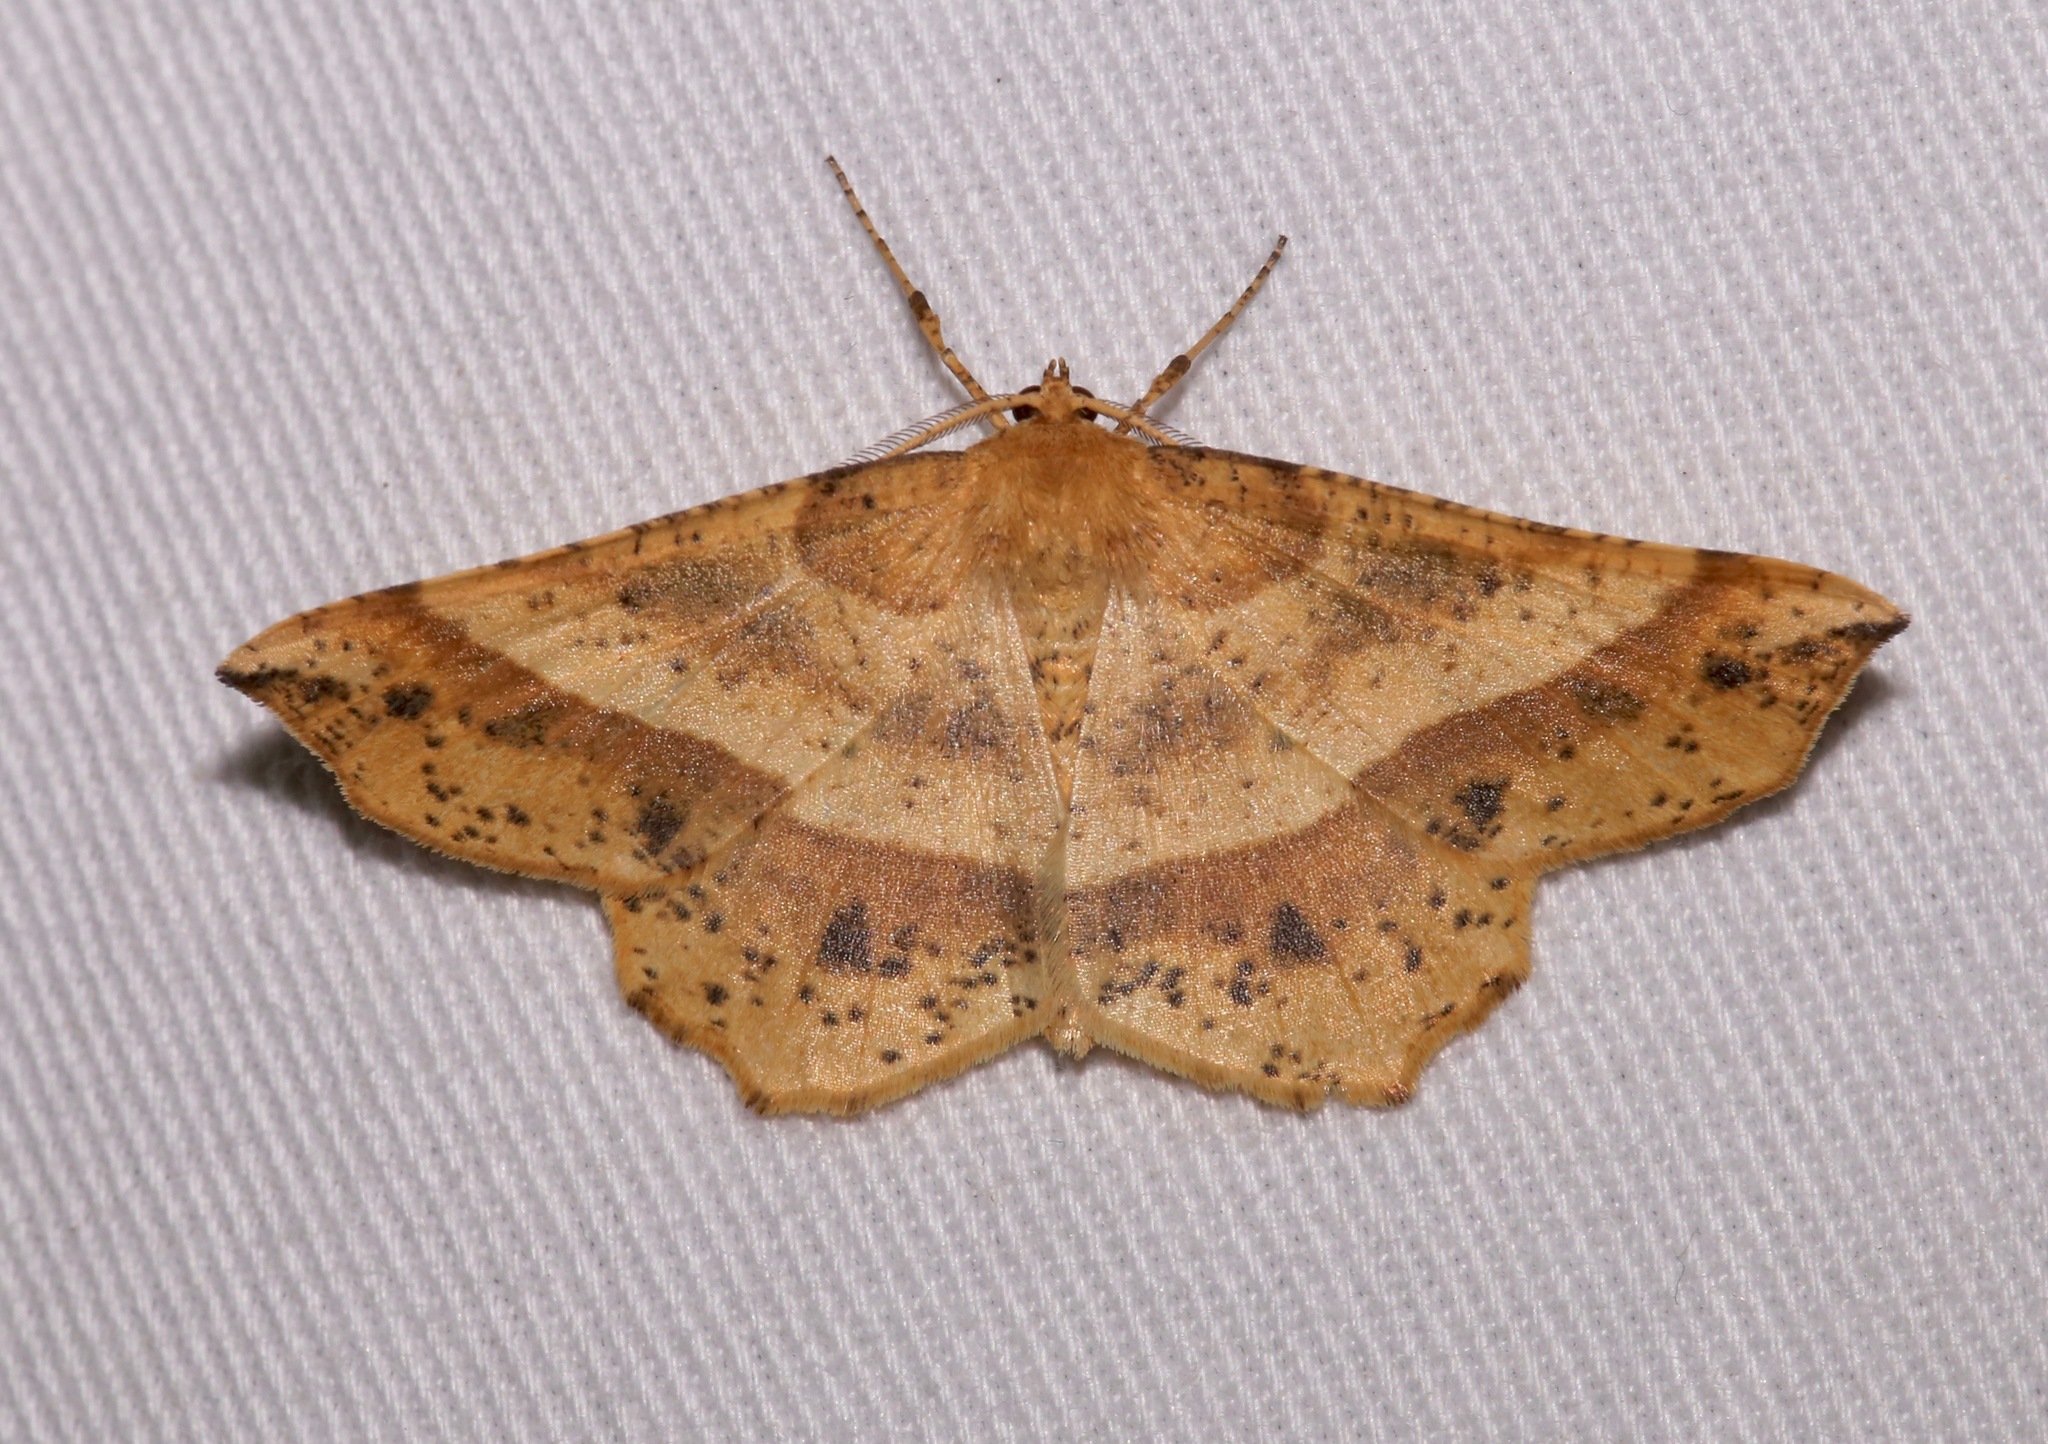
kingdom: Animalia
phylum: Arthropoda
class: Insecta
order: Lepidoptera
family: Geometridae
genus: Euchlaena
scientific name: Euchlaena tigrinaria
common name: Mottled euchlaena moth
